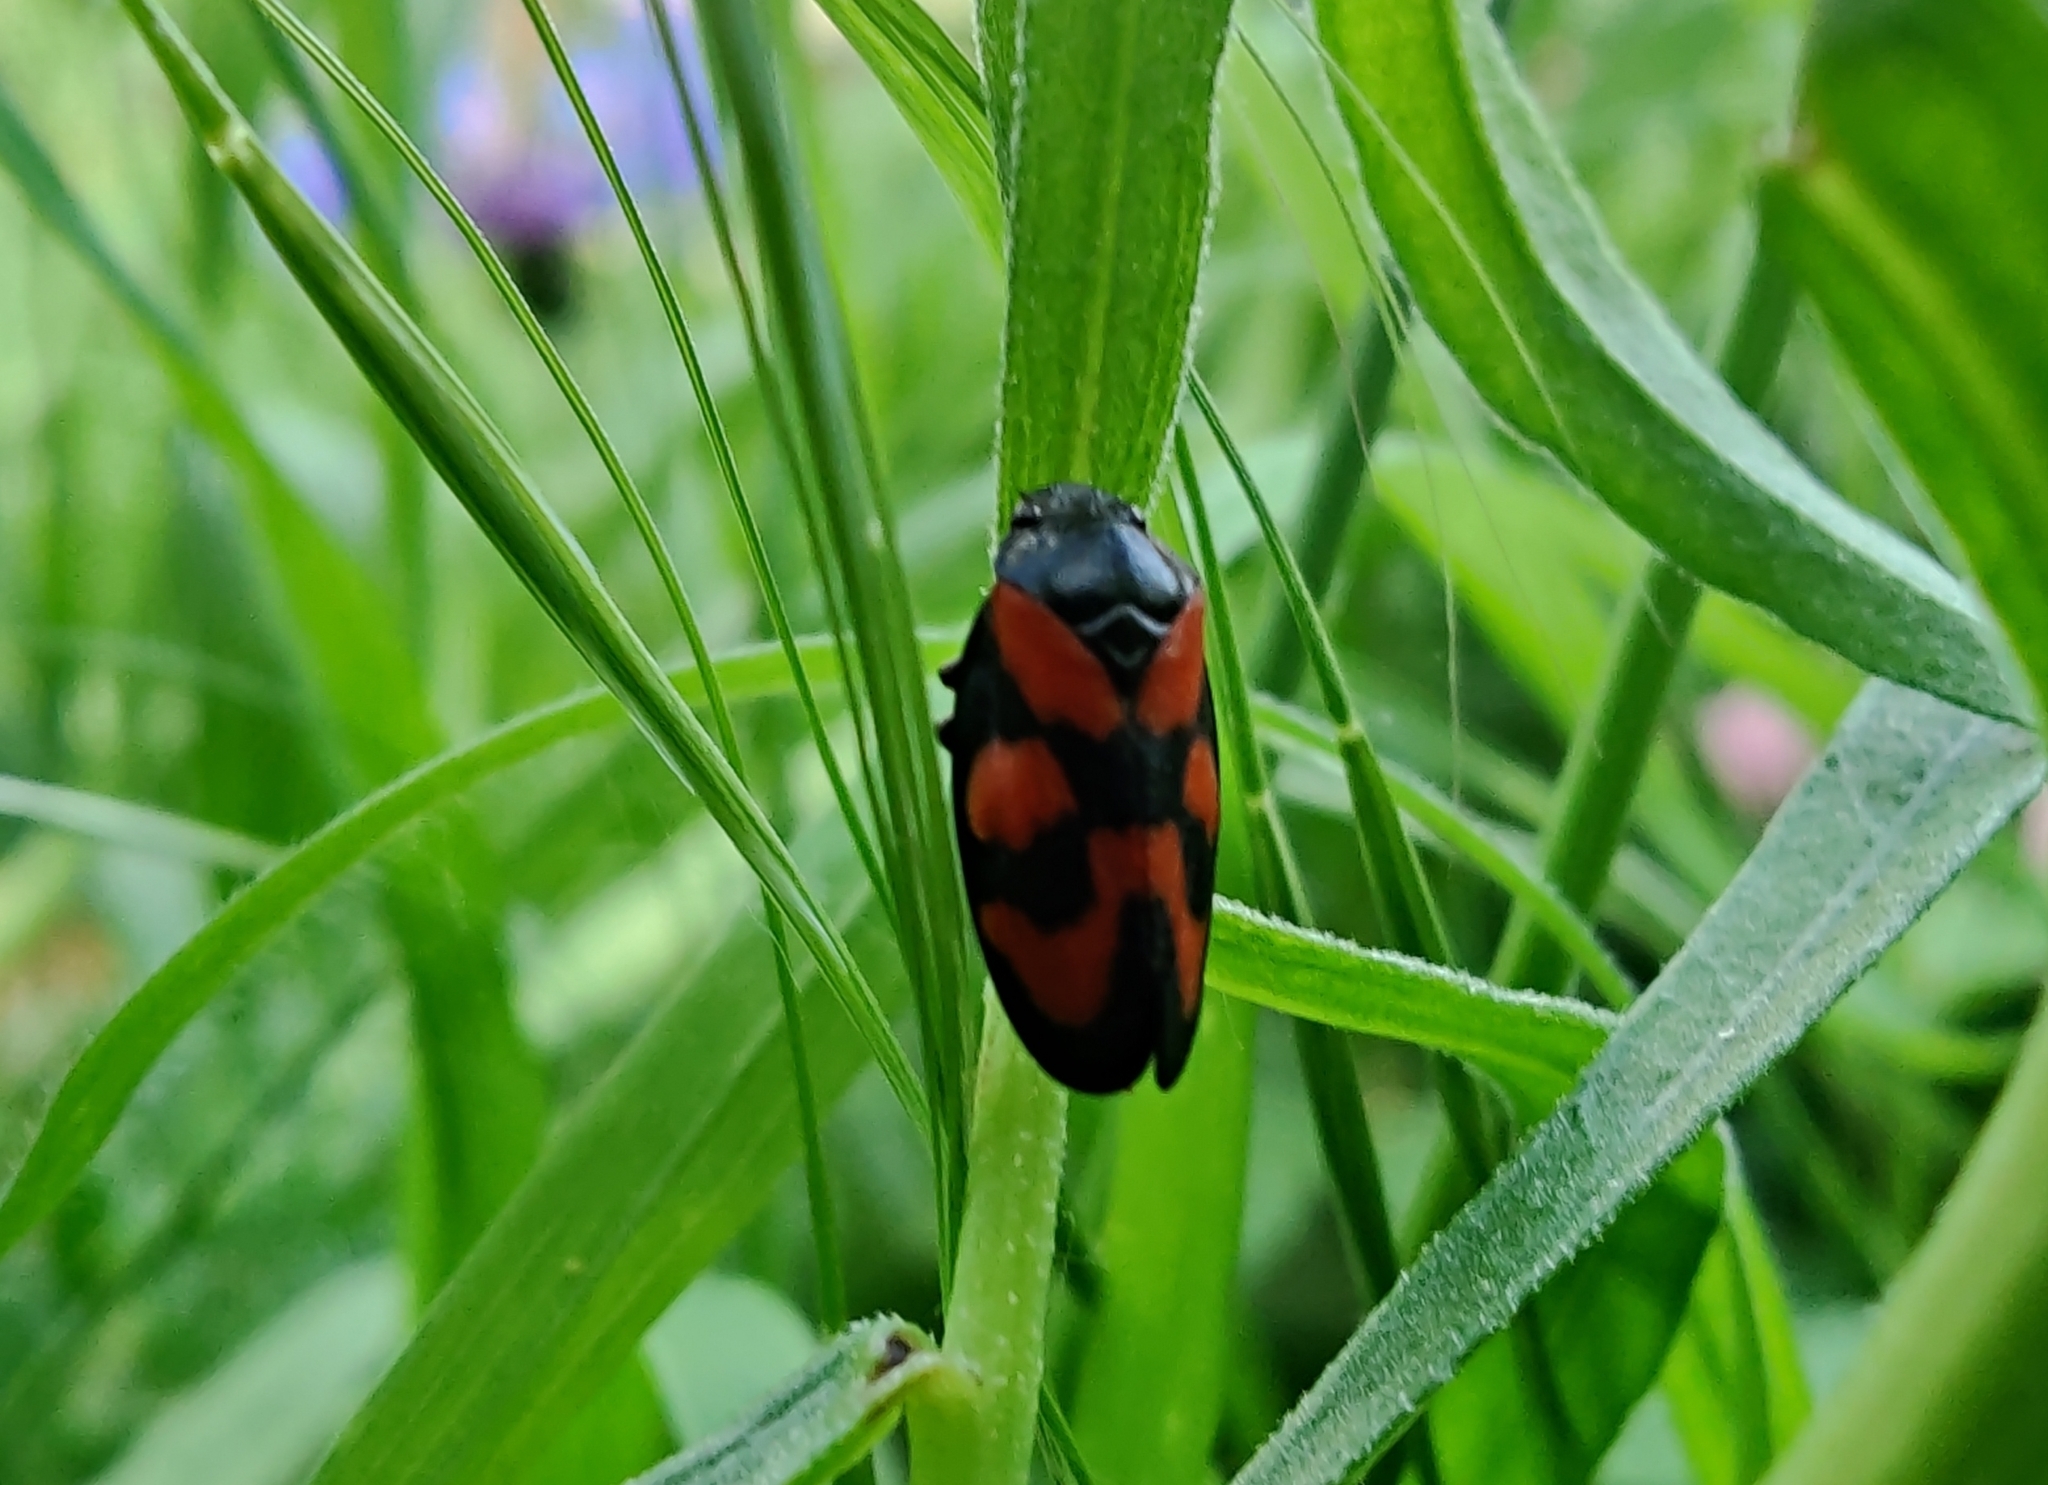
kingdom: Animalia
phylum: Arthropoda
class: Insecta
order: Hemiptera
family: Cercopidae
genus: Cercopis
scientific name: Cercopis vulnerata
